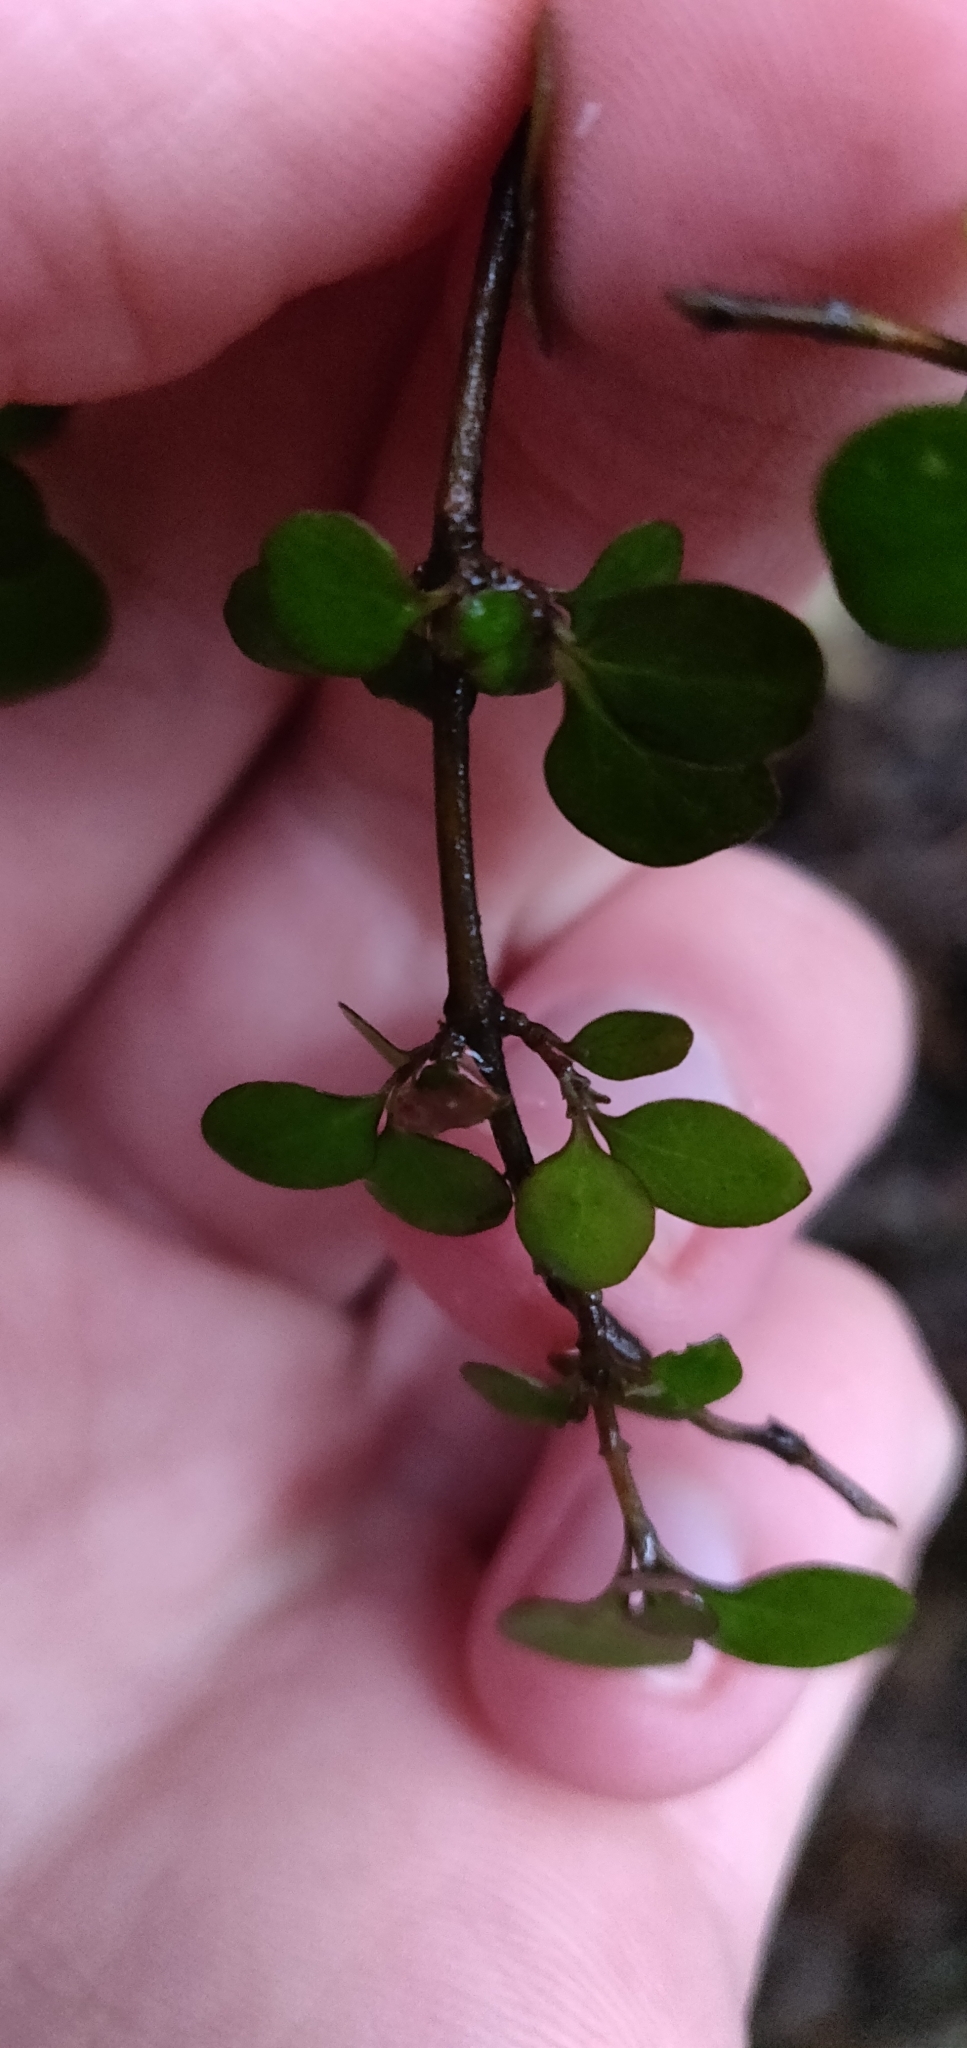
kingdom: Plantae
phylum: Tracheophyta
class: Magnoliopsida
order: Gentianales
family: Rubiaceae
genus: Coprosma
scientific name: Coprosma rhamnoides
